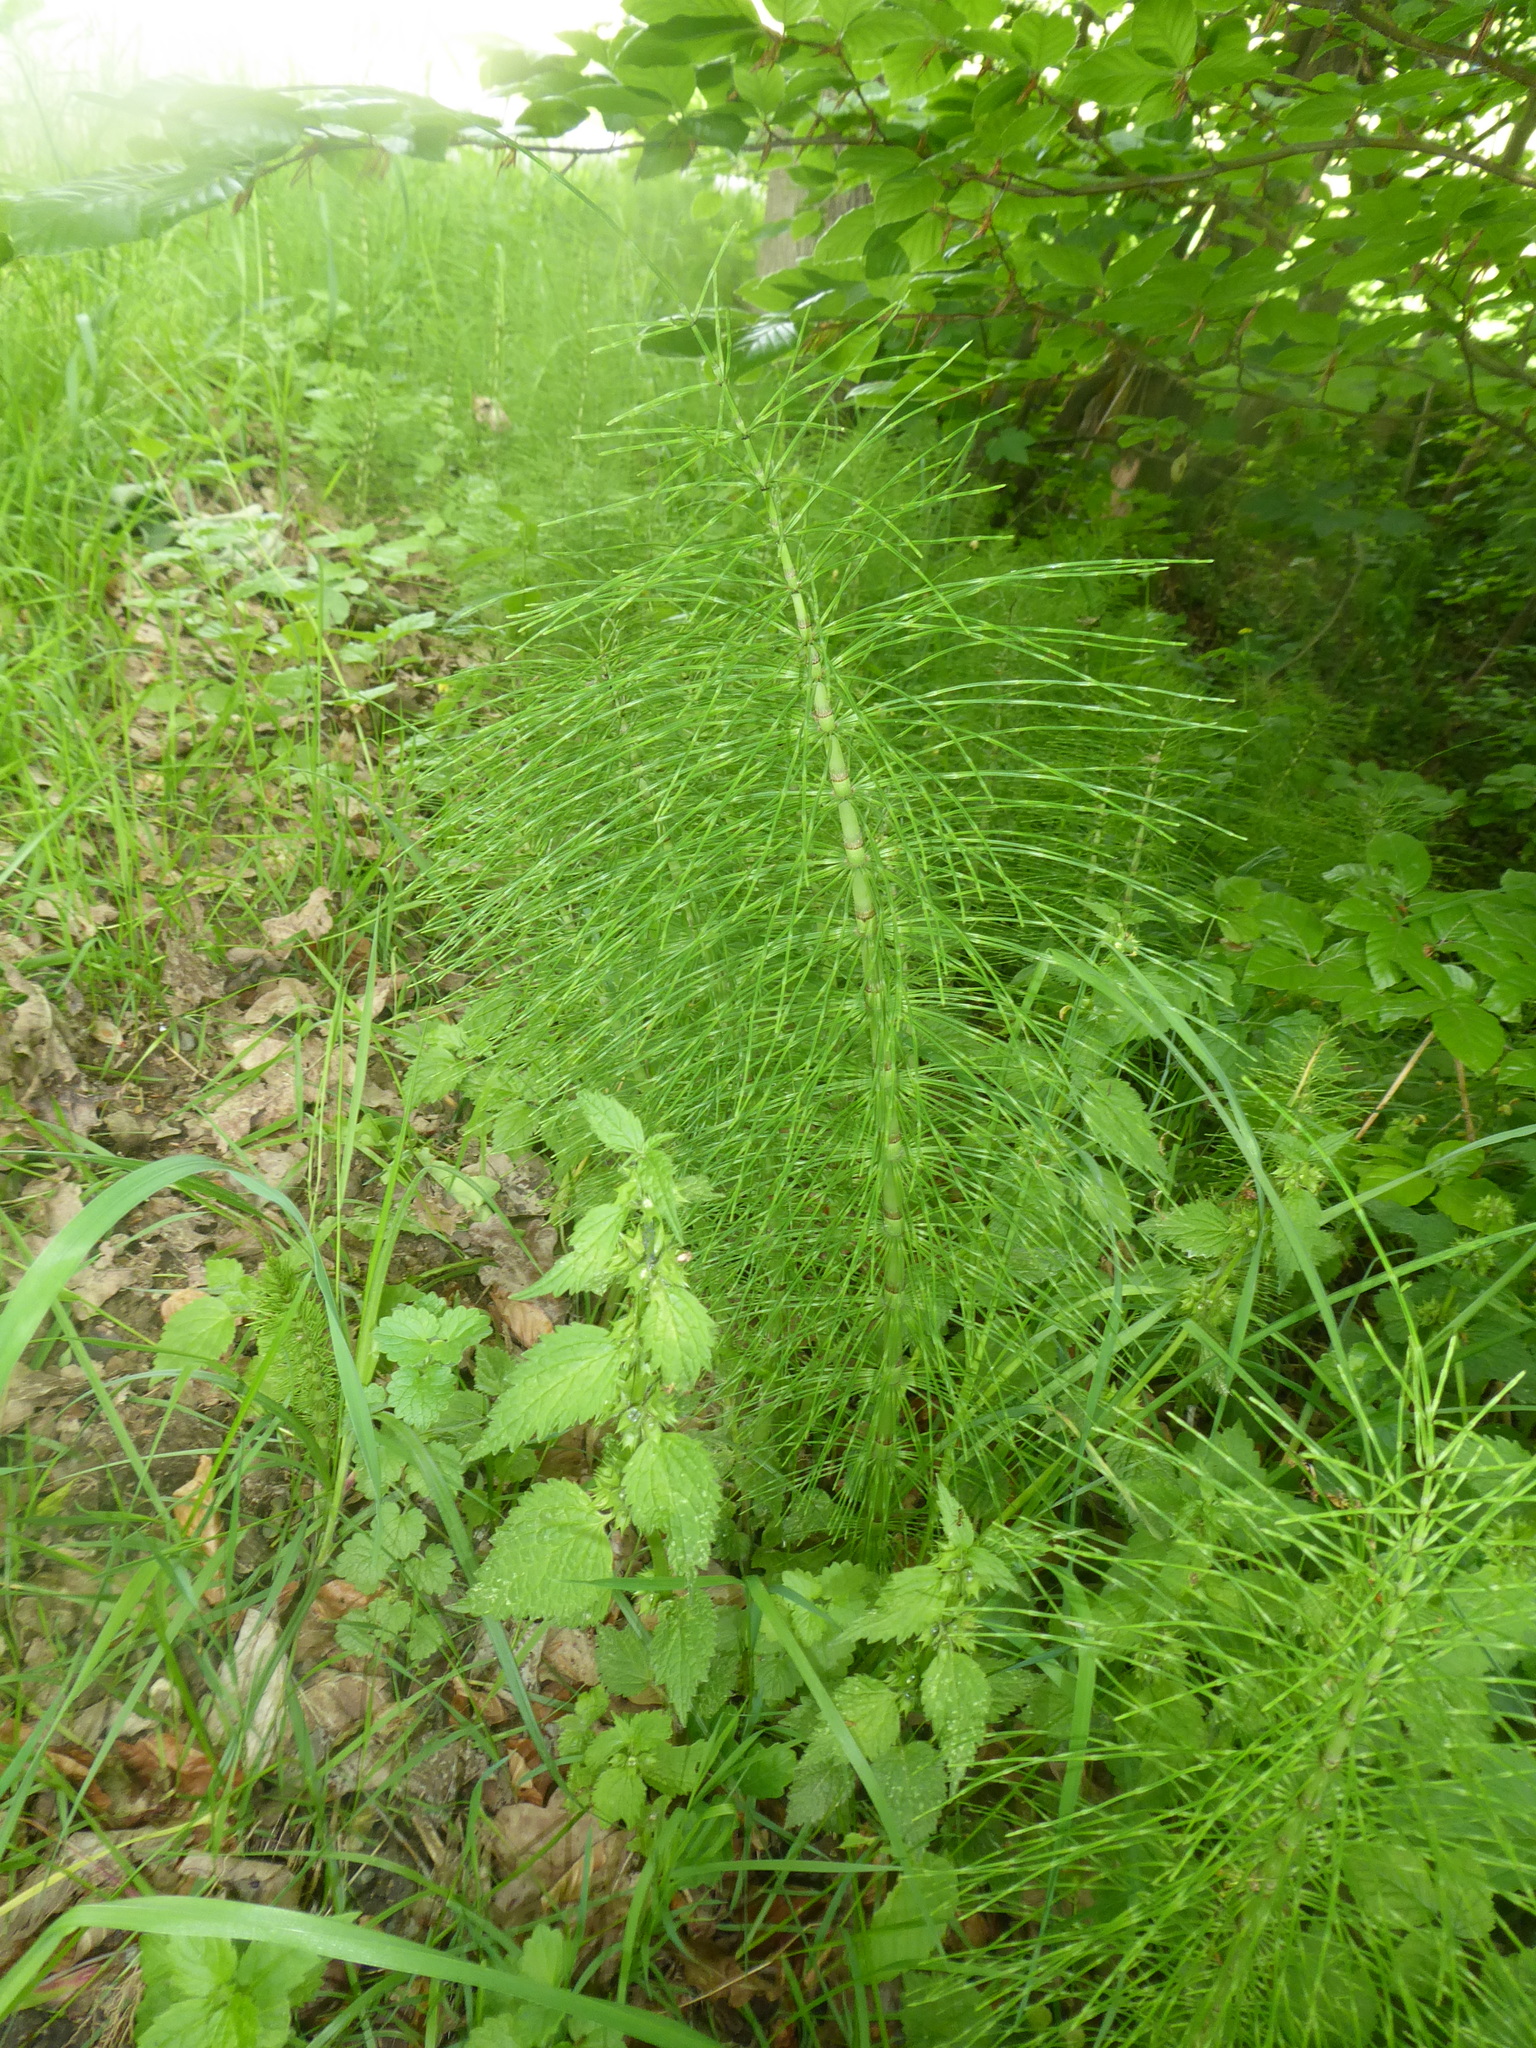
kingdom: Plantae
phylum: Tracheophyta
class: Polypodiopsida
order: Equisetales
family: Equisetaceae
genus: Equisetum
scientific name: Equisetum telmateia
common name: Great horsetail
